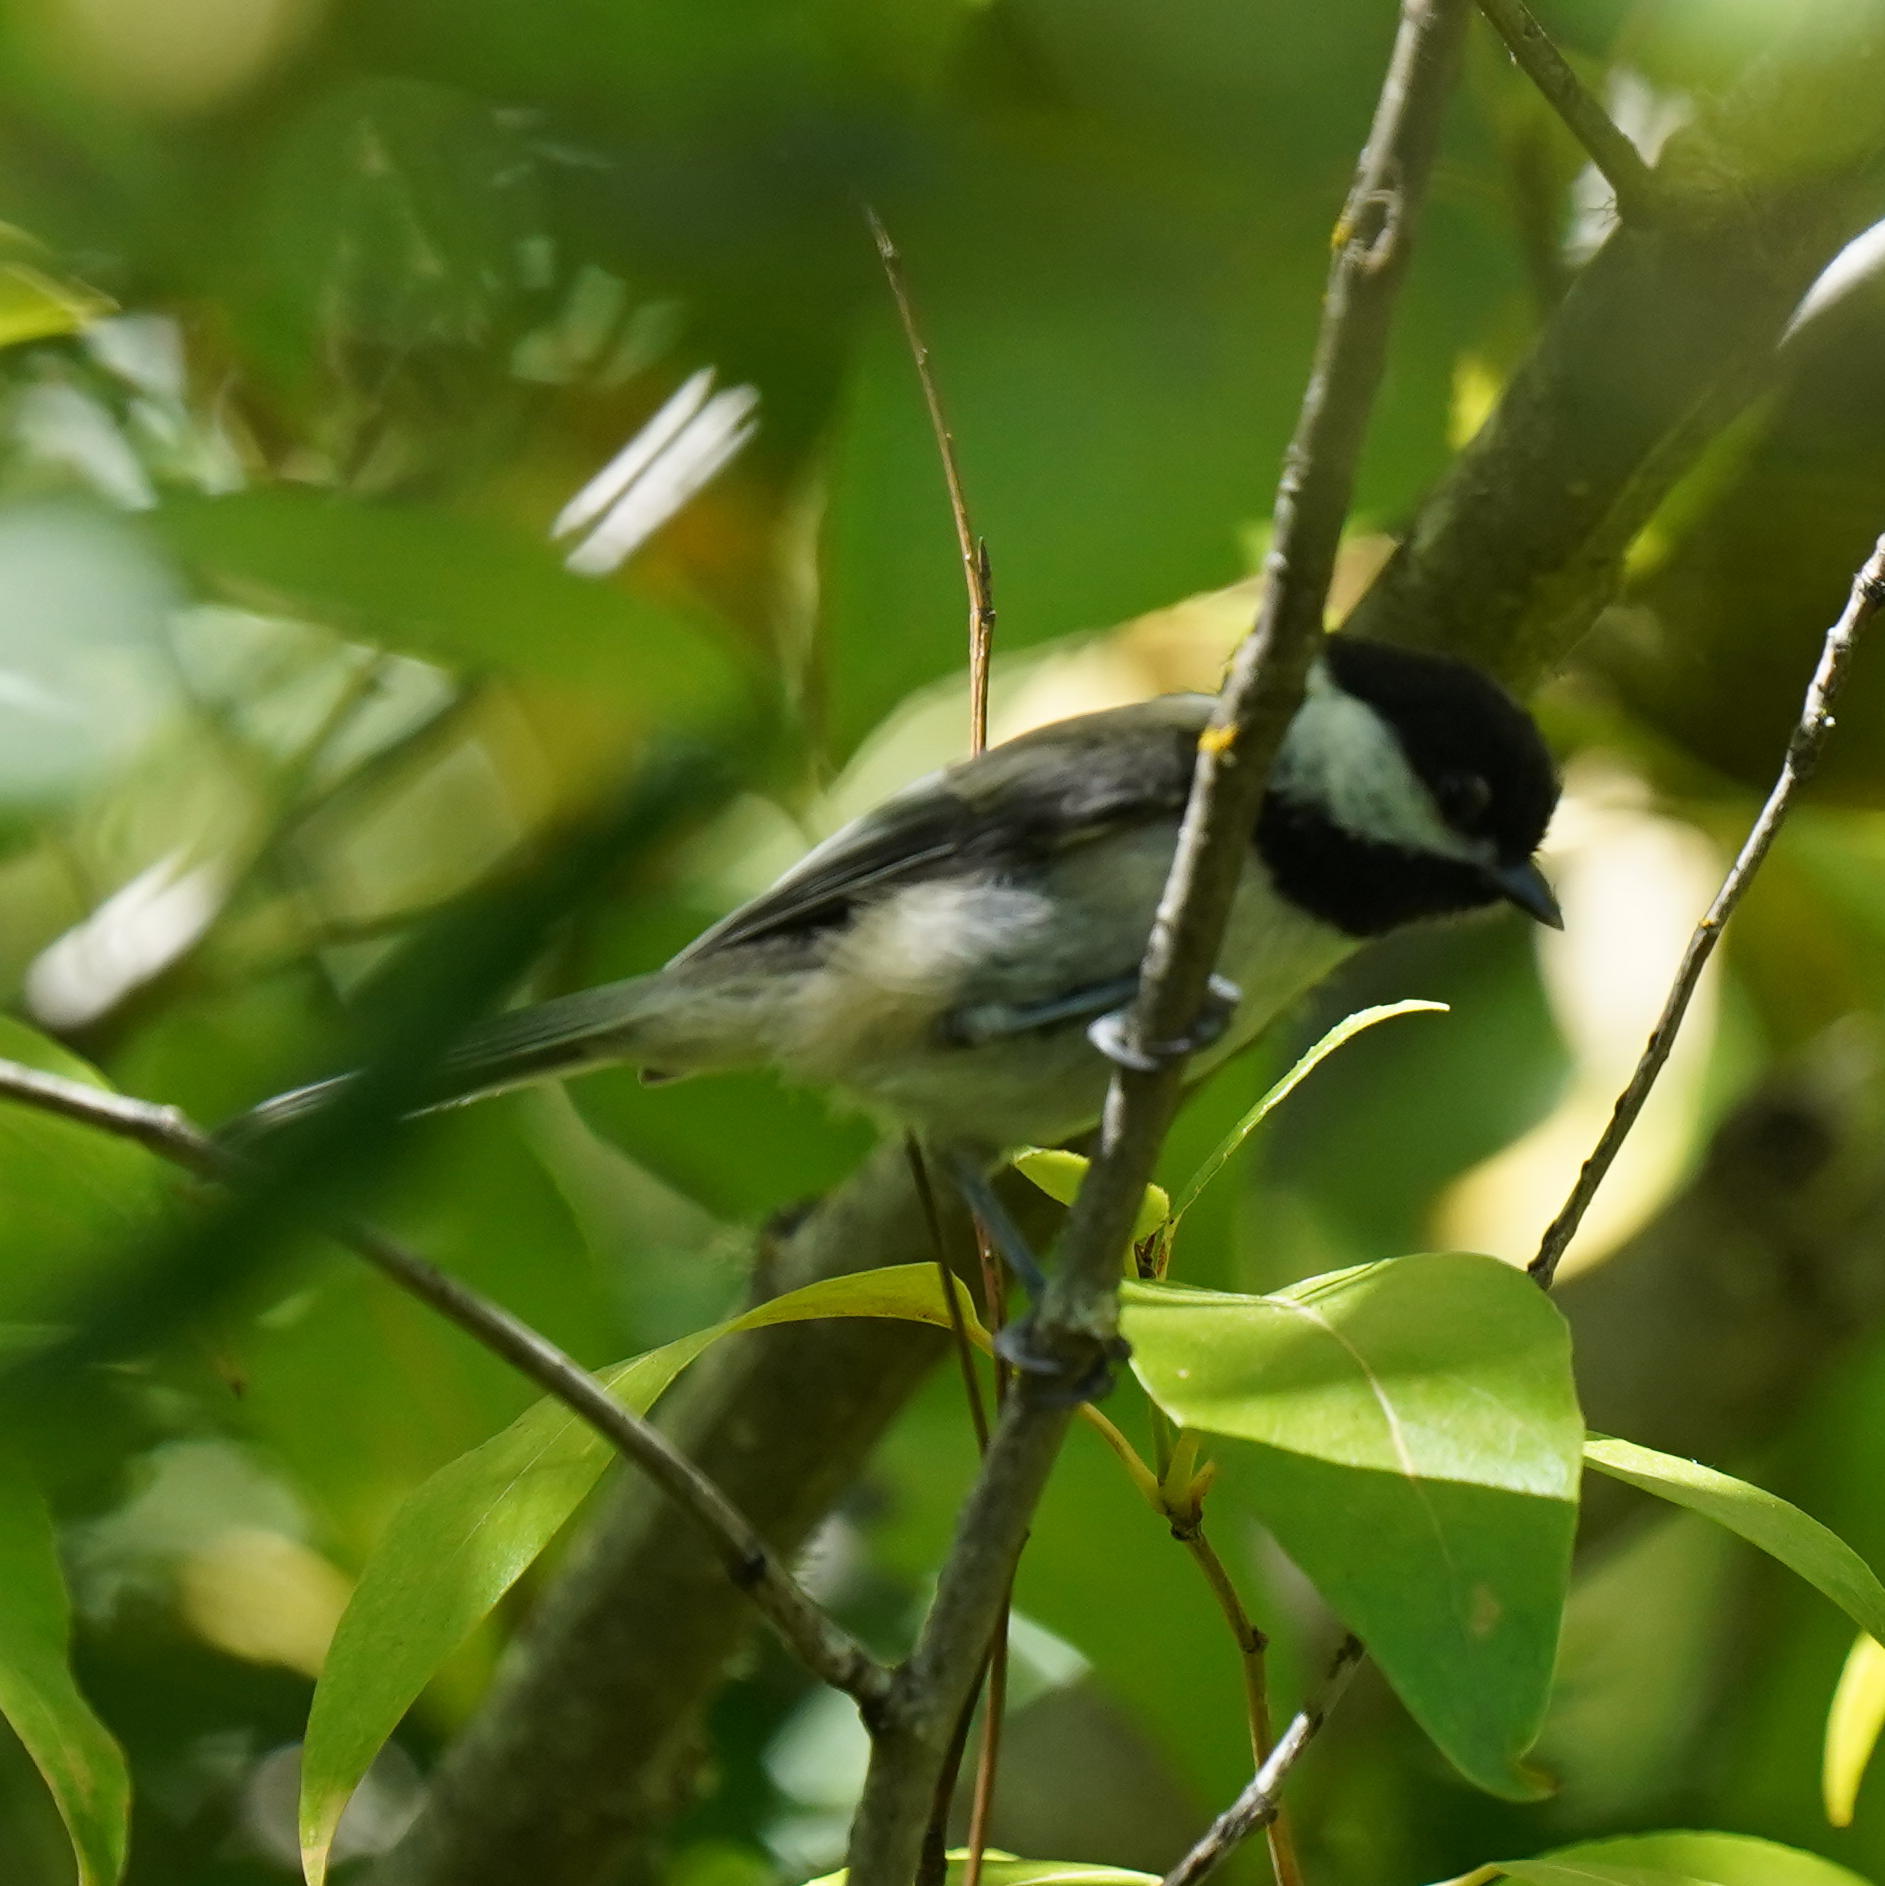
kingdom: Animalia
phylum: Chordata
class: Aves
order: Passeriformes
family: Paridae
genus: Poecile
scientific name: Poecile atricapillus
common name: Black-capped chickadee
